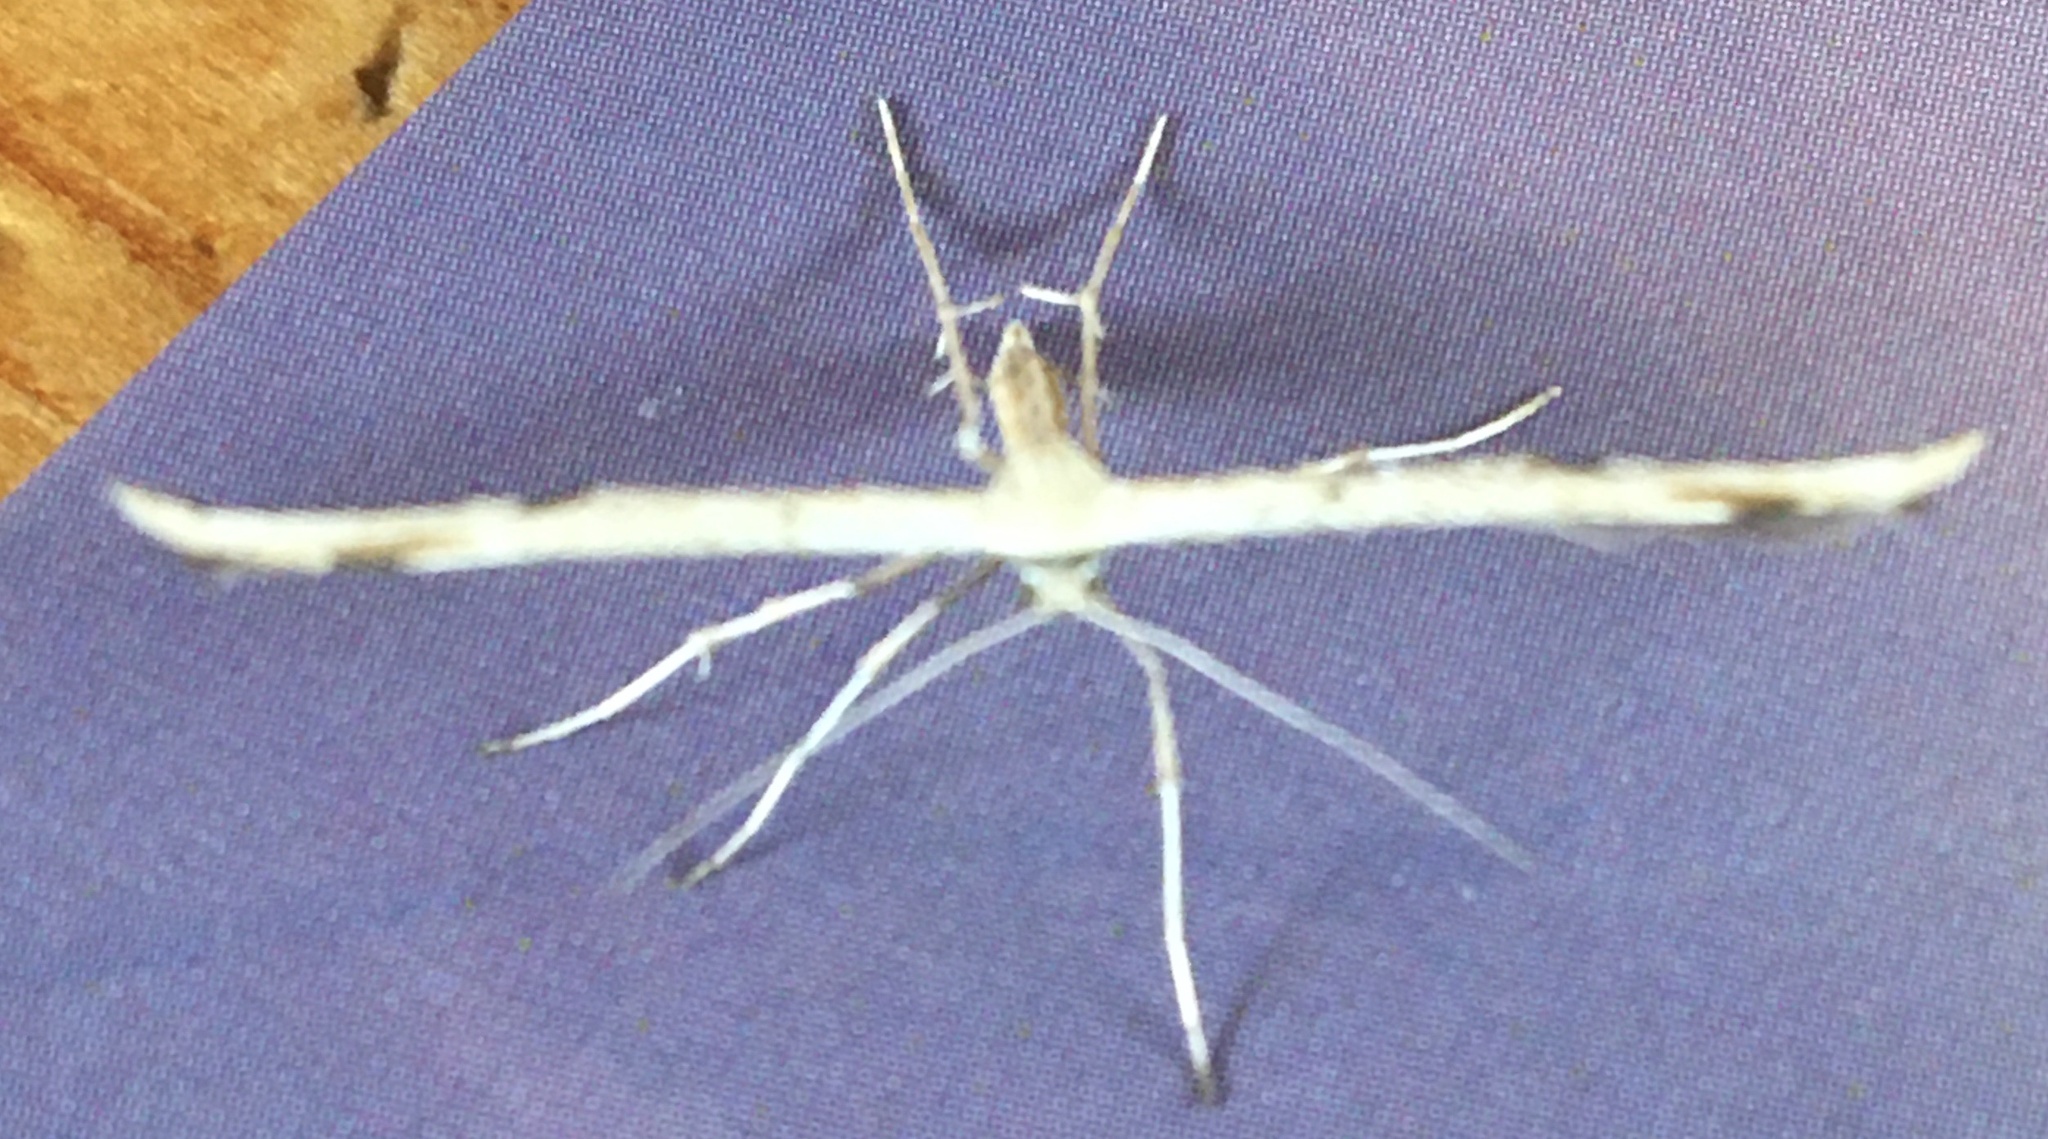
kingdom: Animalia
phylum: Arthropoda
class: Insecta
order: Lepidoptera
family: Pterophoridae
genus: Emmelina
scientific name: Emmelina monodactyla
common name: Common plume
